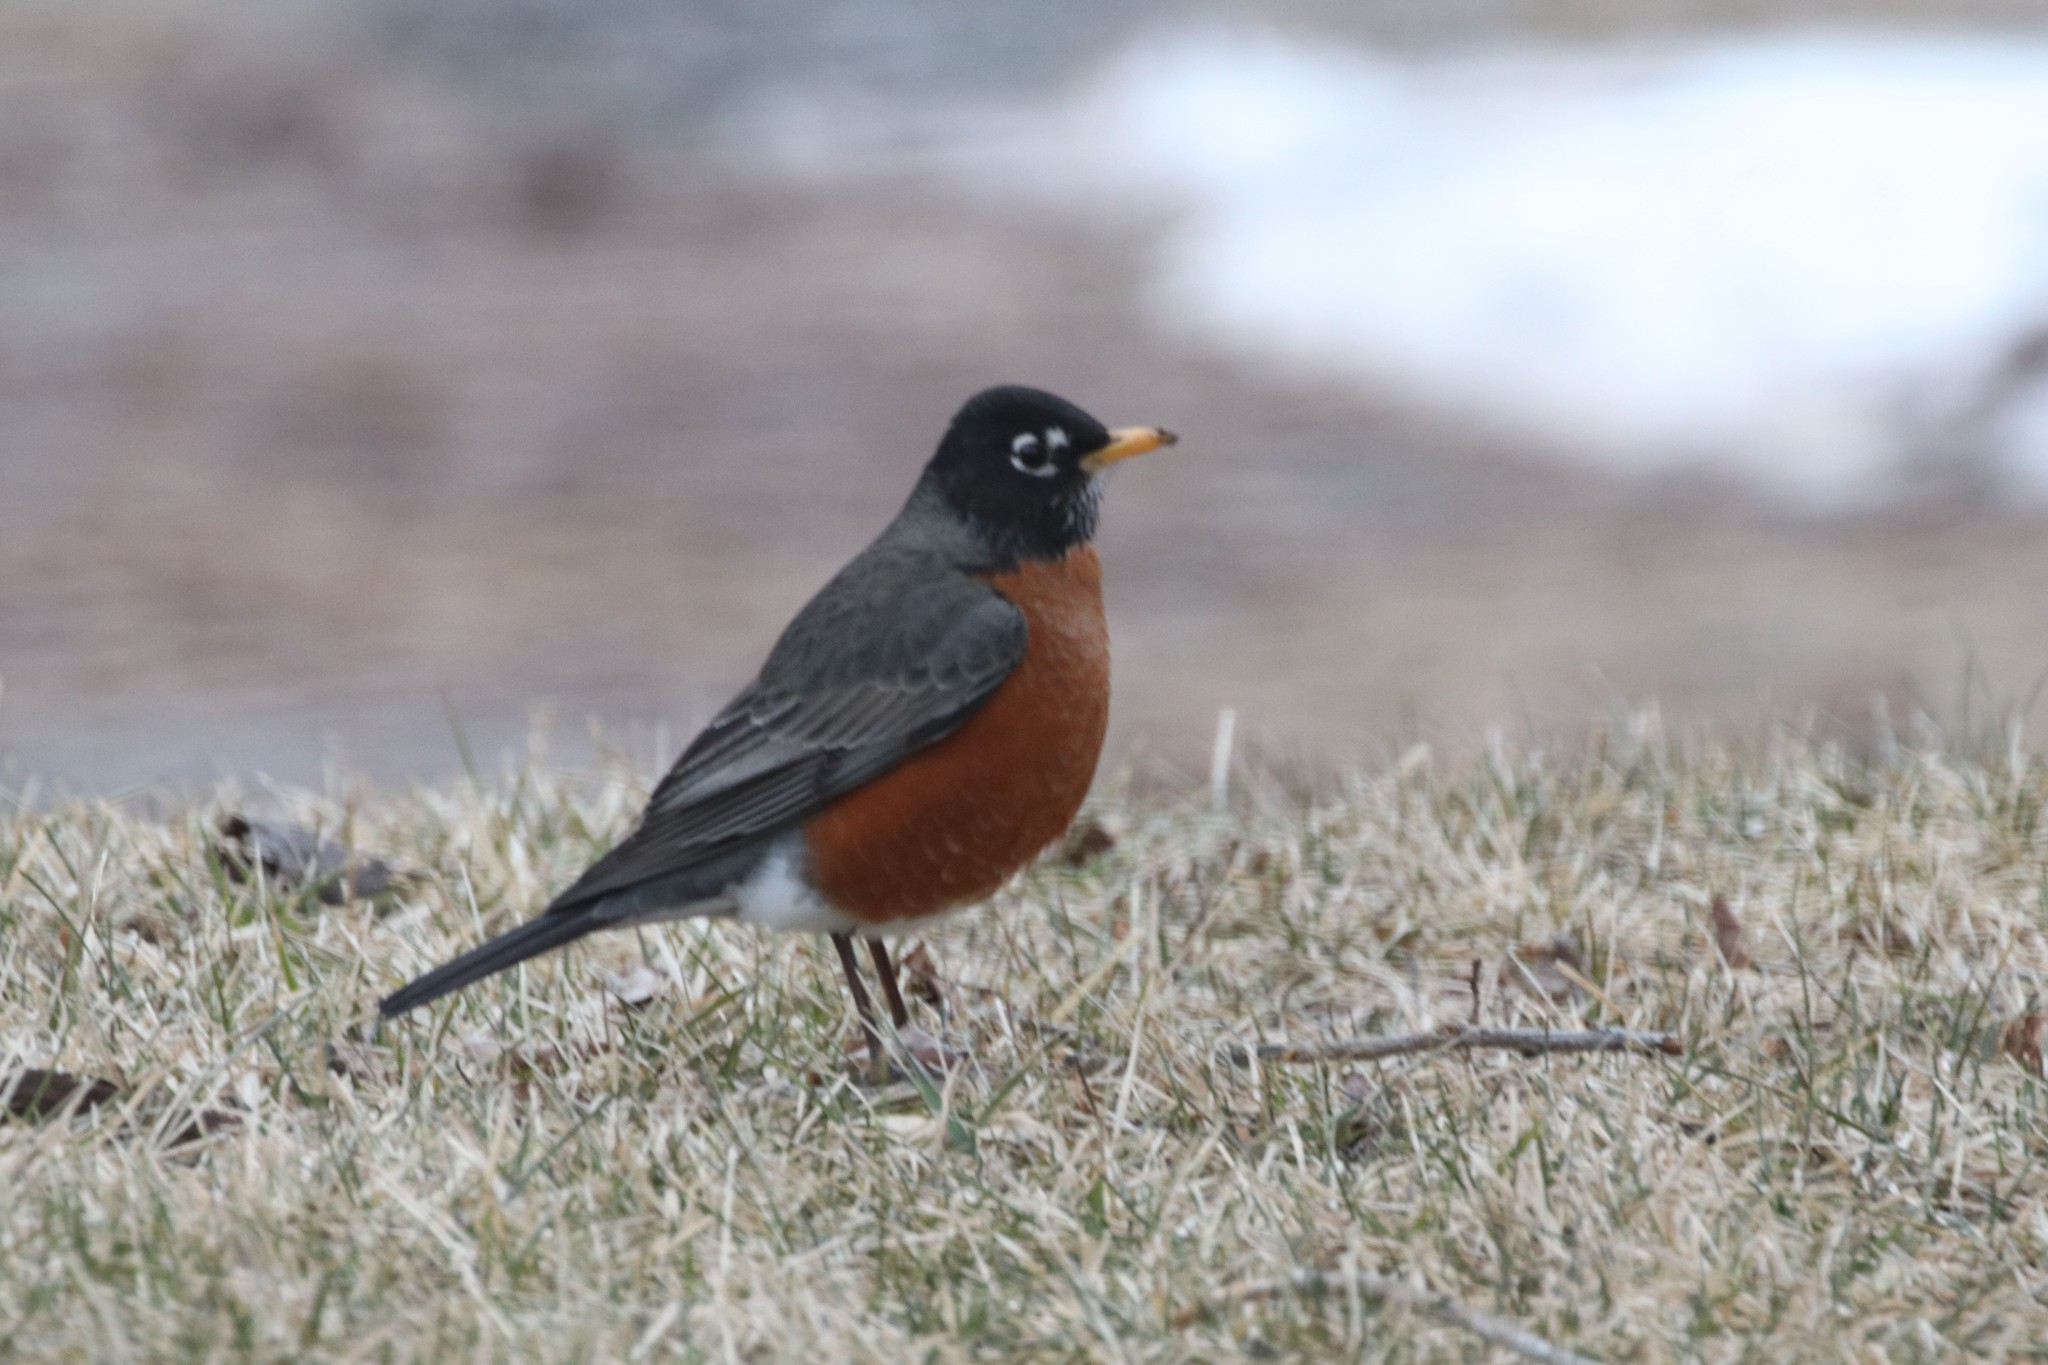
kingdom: Animalia
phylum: Chordata
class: Aves
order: Passeriformes
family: Turdidae
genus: Turdus
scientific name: Turdus migratorius
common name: American robin
